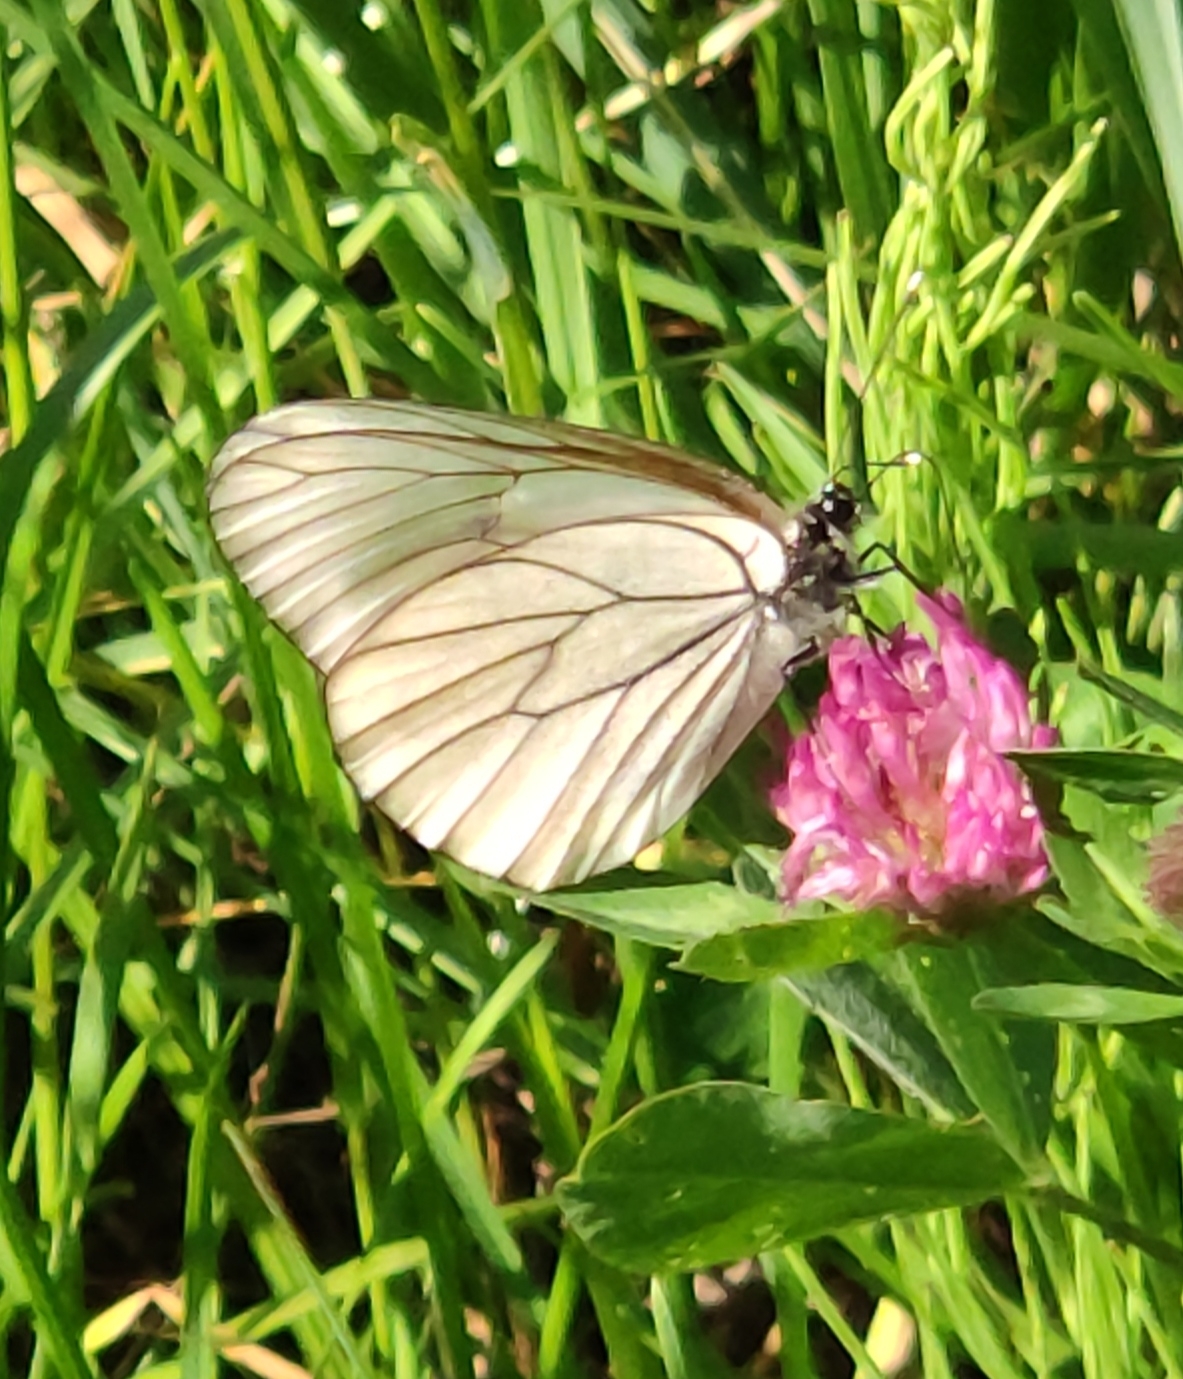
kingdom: Animalia
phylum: Arthropoda
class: Insecta
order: Lepidoptera
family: Pieridae
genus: Aporia
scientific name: Aporia crataegi
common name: Black-veined white
